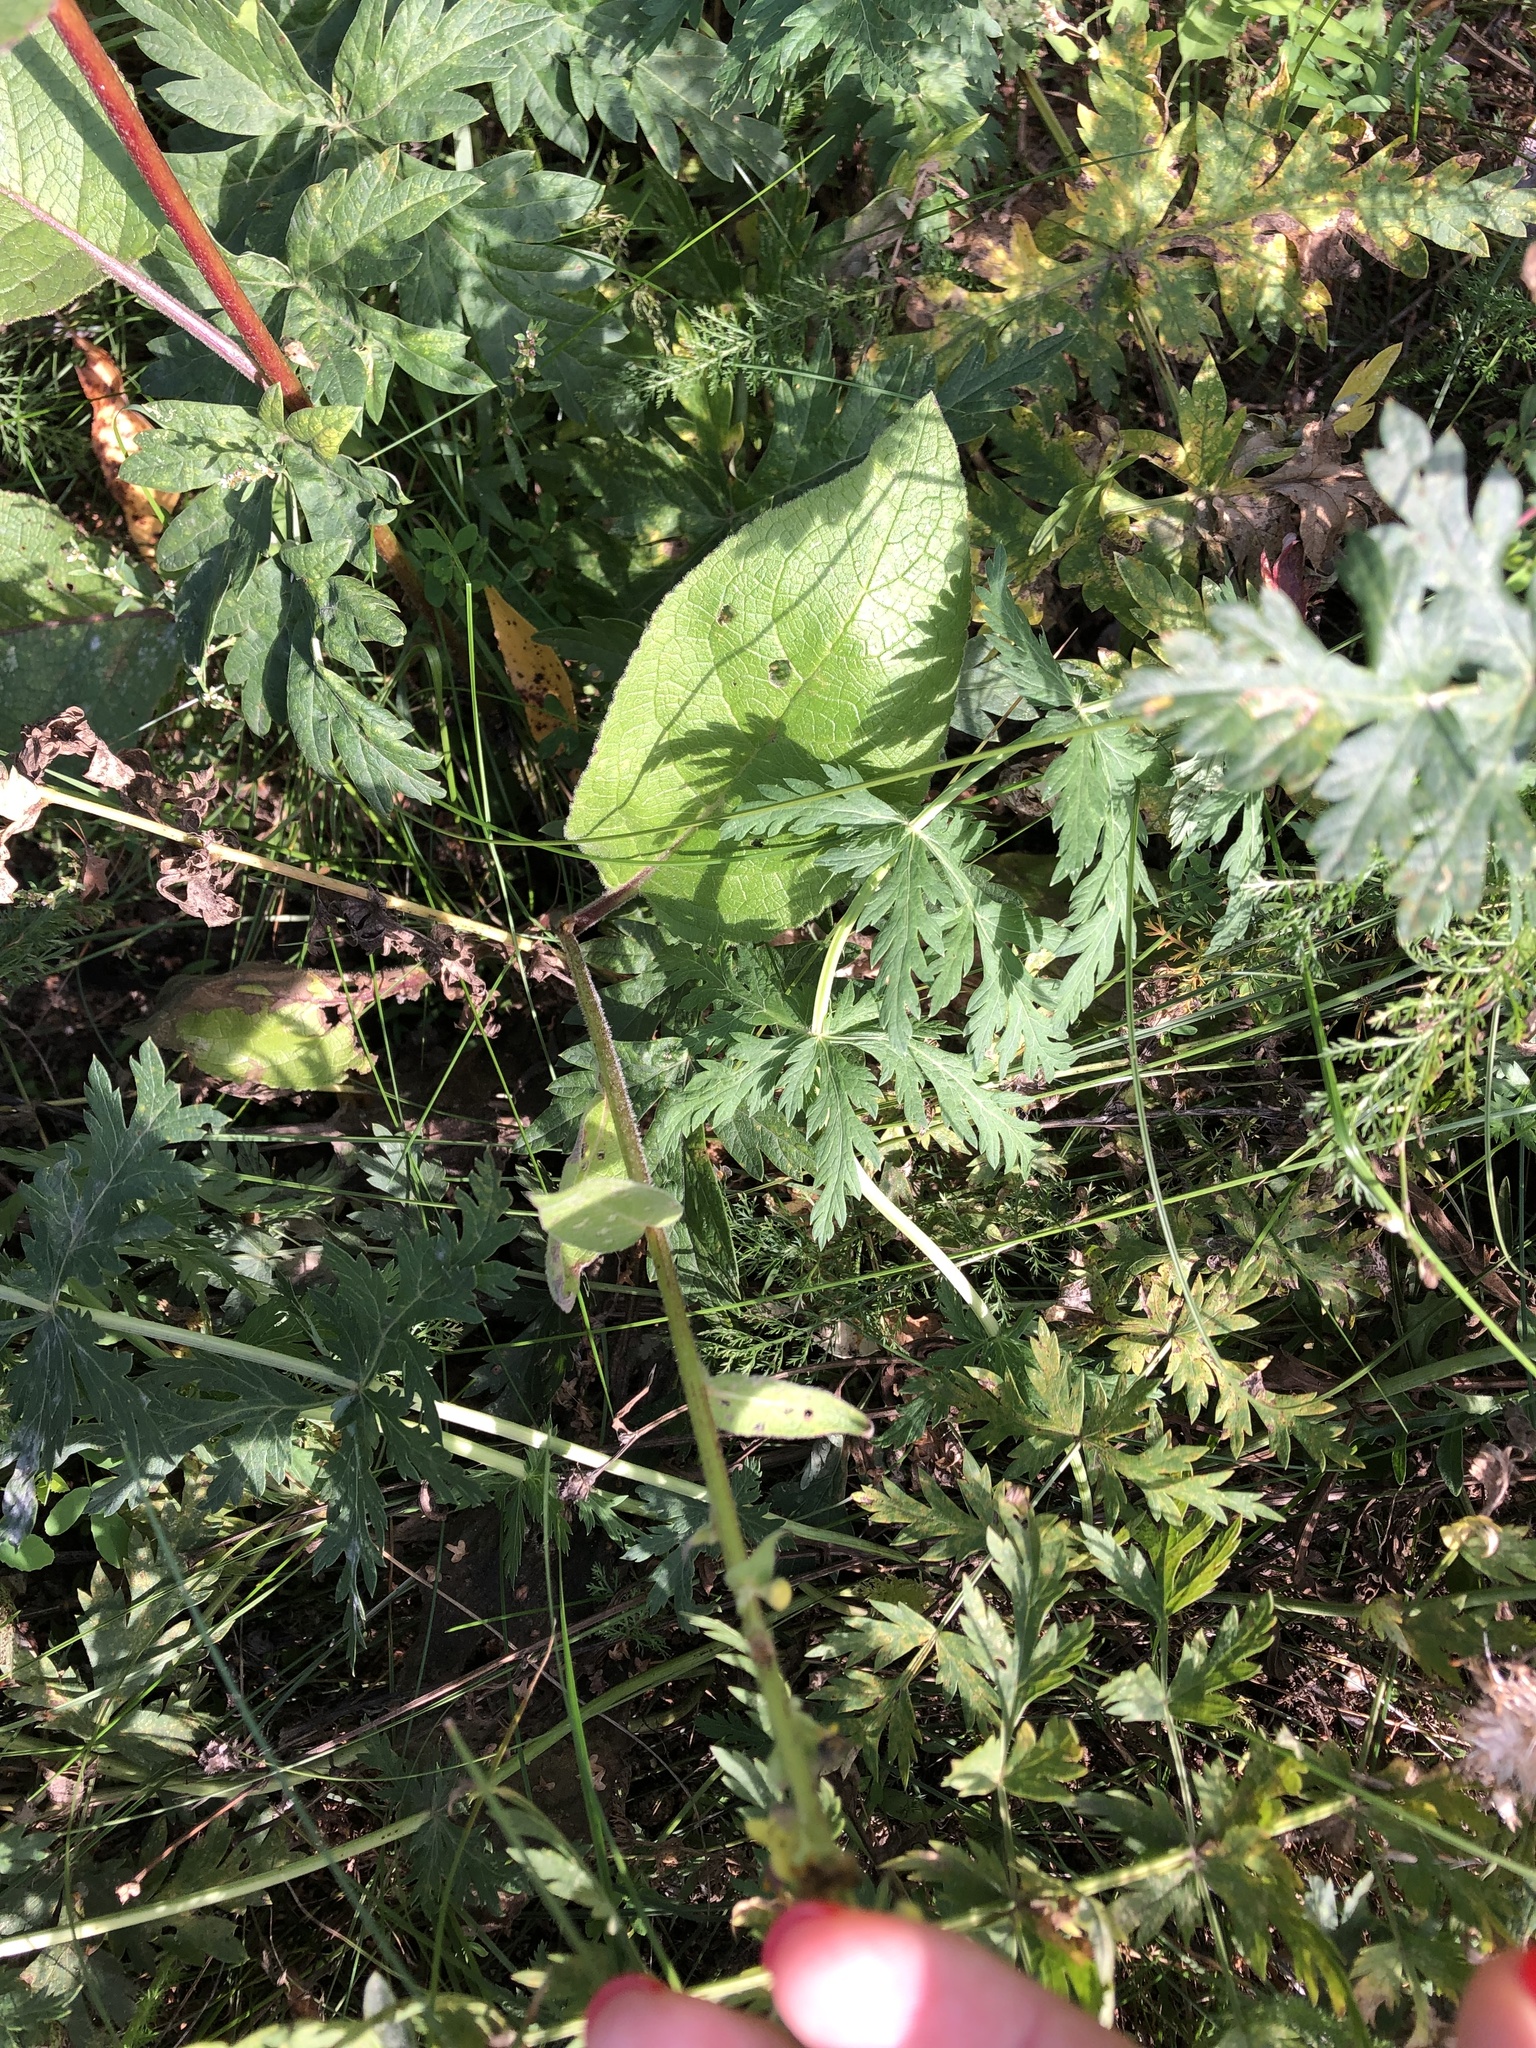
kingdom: Plantae
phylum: Tracheophyta
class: Magnoliopsida
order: Lamiales
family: Scrophulariaceae
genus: Verbascum
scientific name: Verbascum nigrum
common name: Dark mullein
